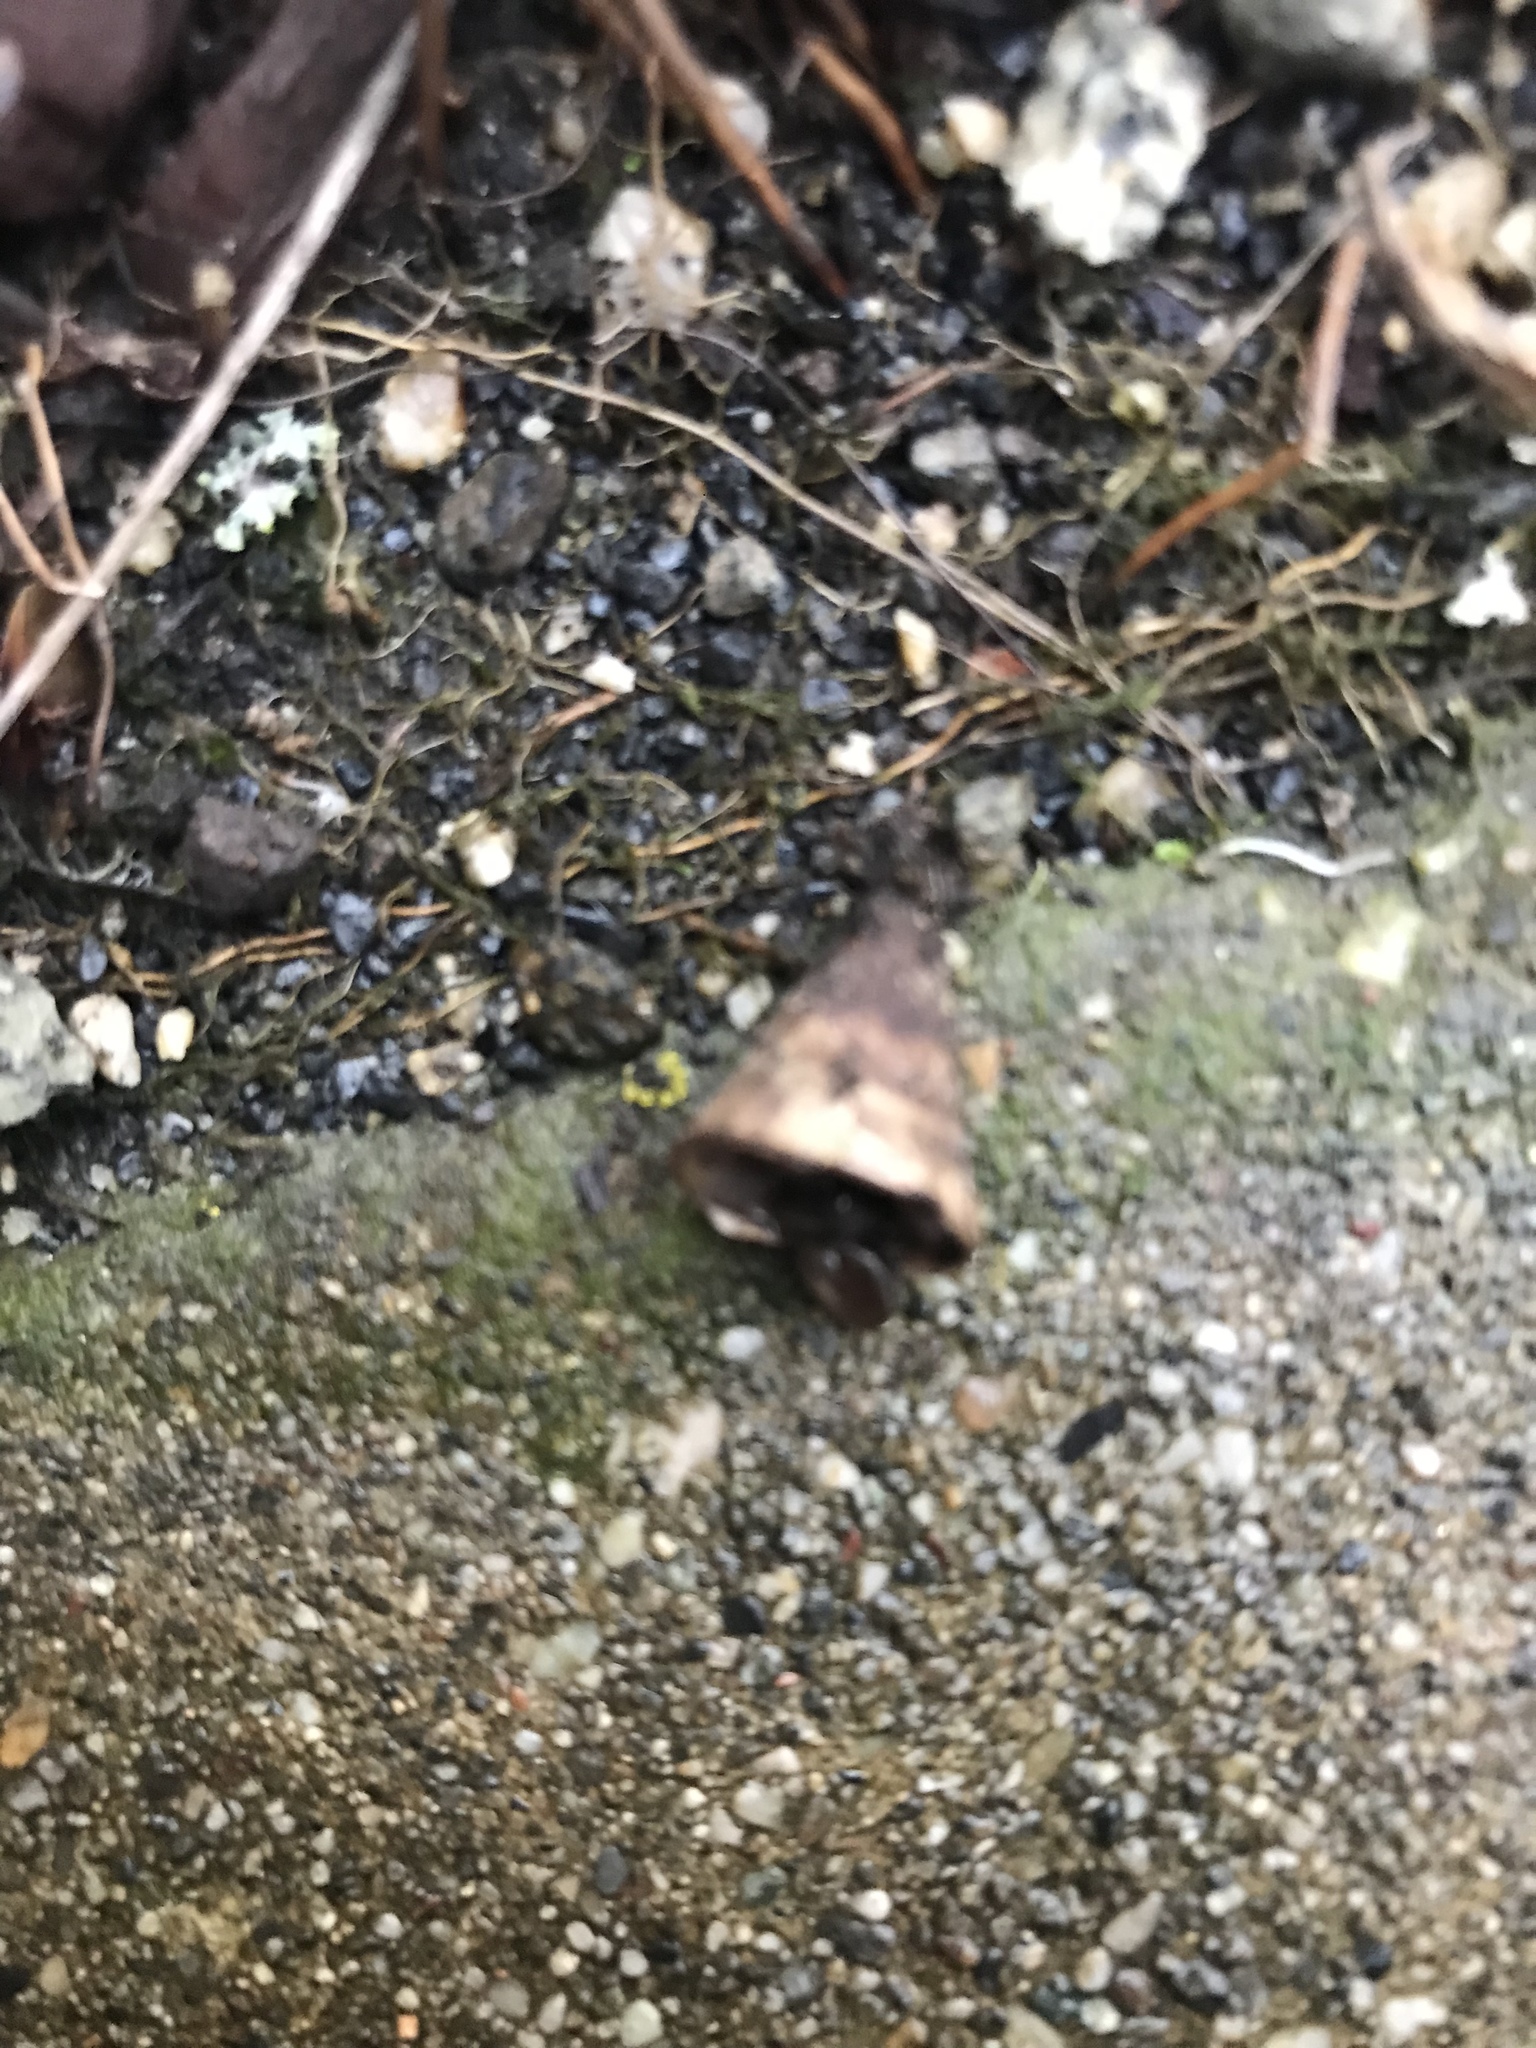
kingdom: Fungi
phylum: Basidiomycota
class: Agaricomycetes
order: Agaricales
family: Agaricaceae
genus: Cyathus
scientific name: Cyathus olla
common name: Field bird's nest
